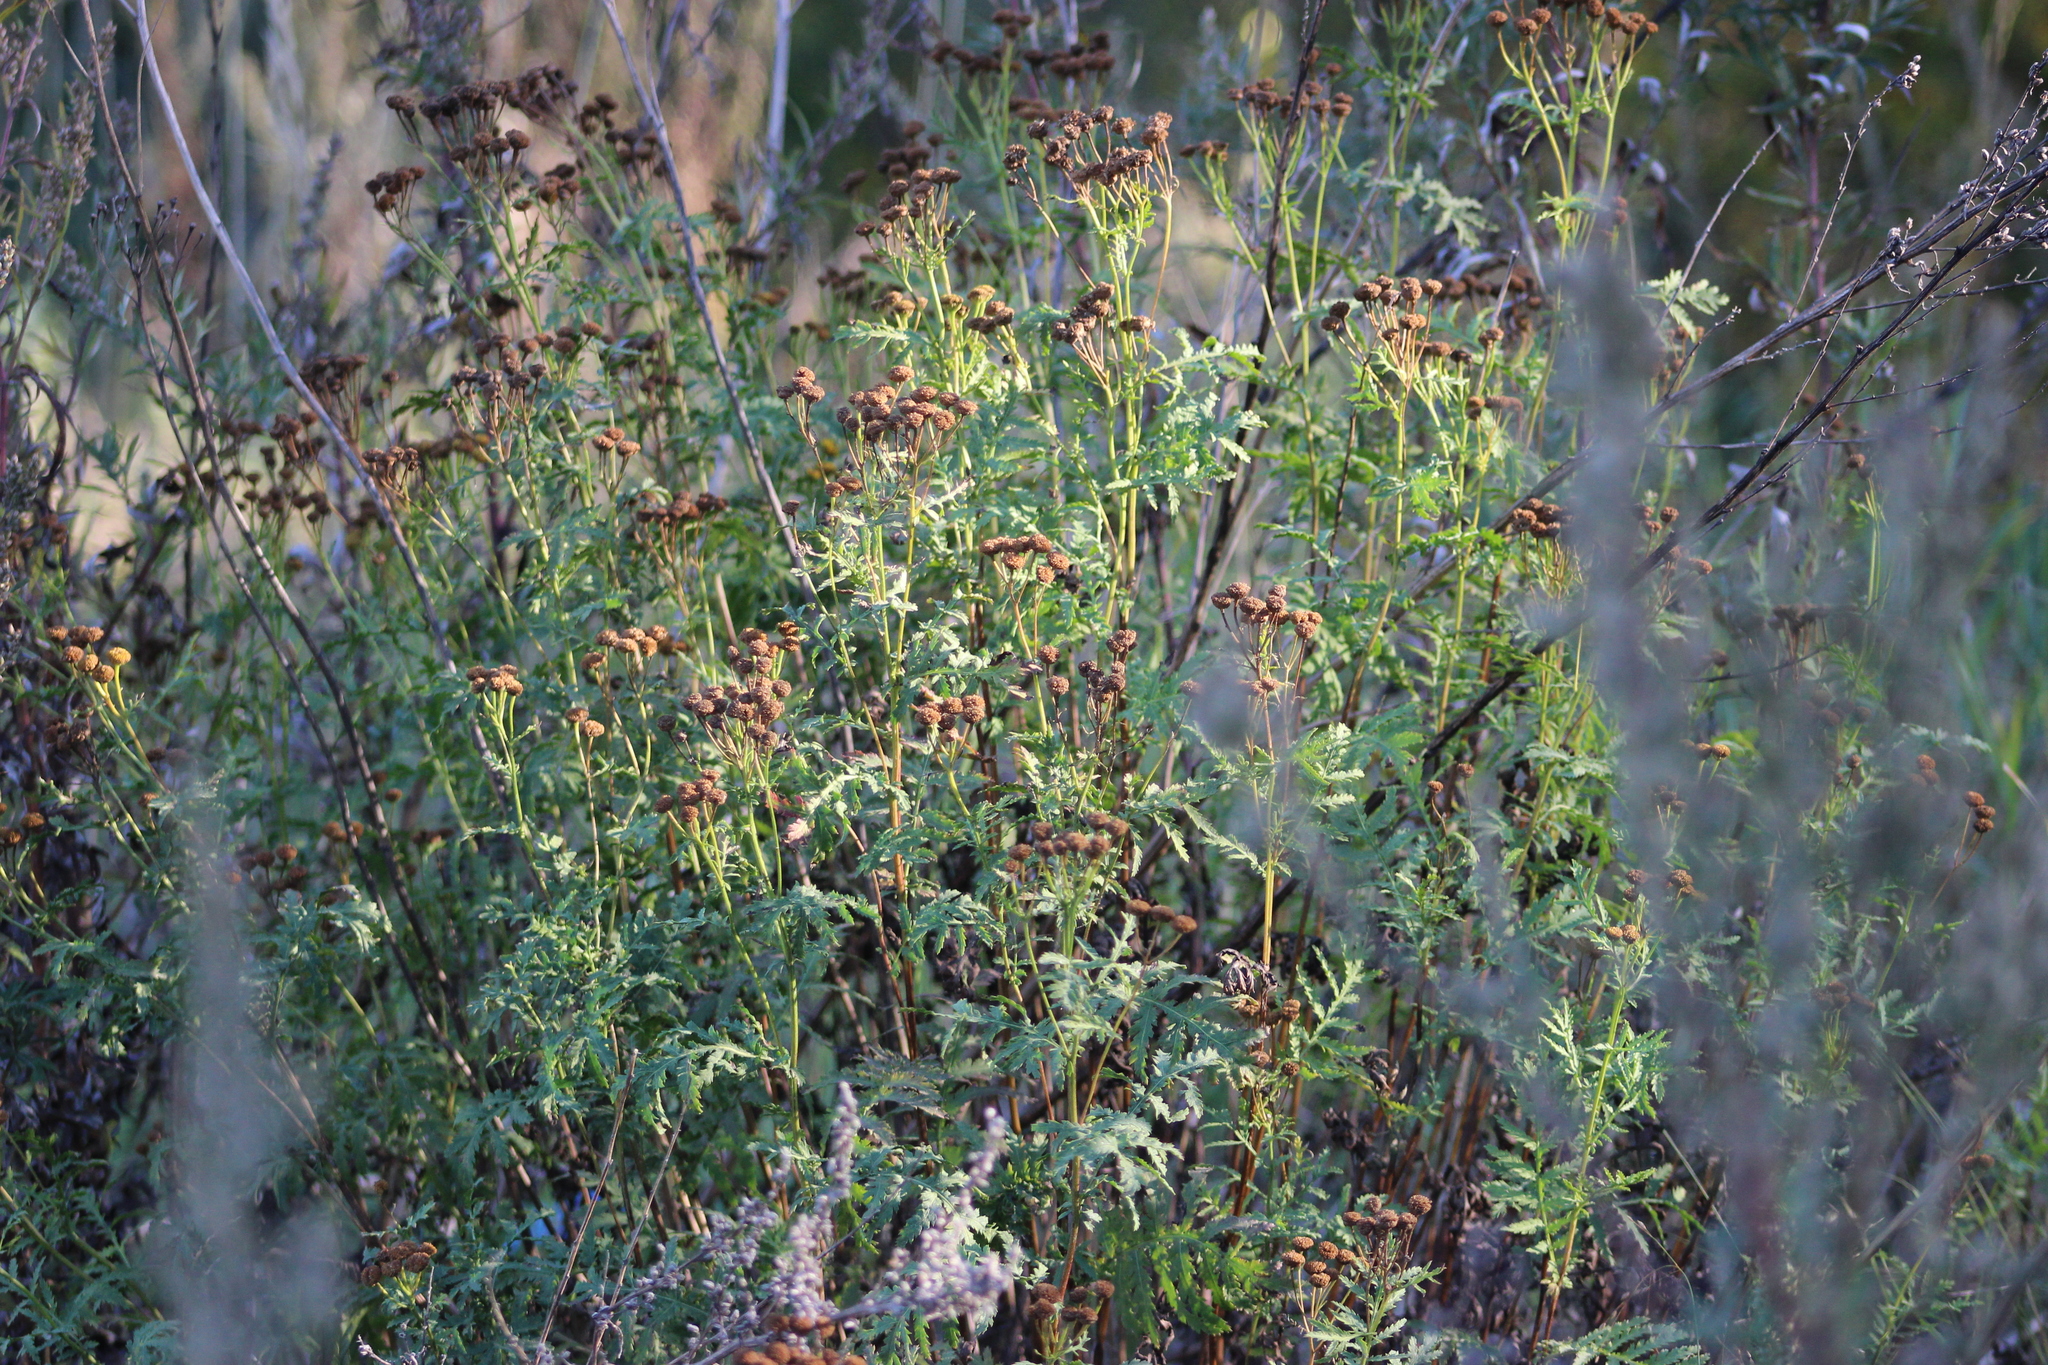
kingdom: Plantae
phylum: Tracheophyta
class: Magnoliopsida
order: Asterales
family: Asteraceae
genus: Tanacetum
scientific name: Tanacetum vulgare
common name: Common tansy
